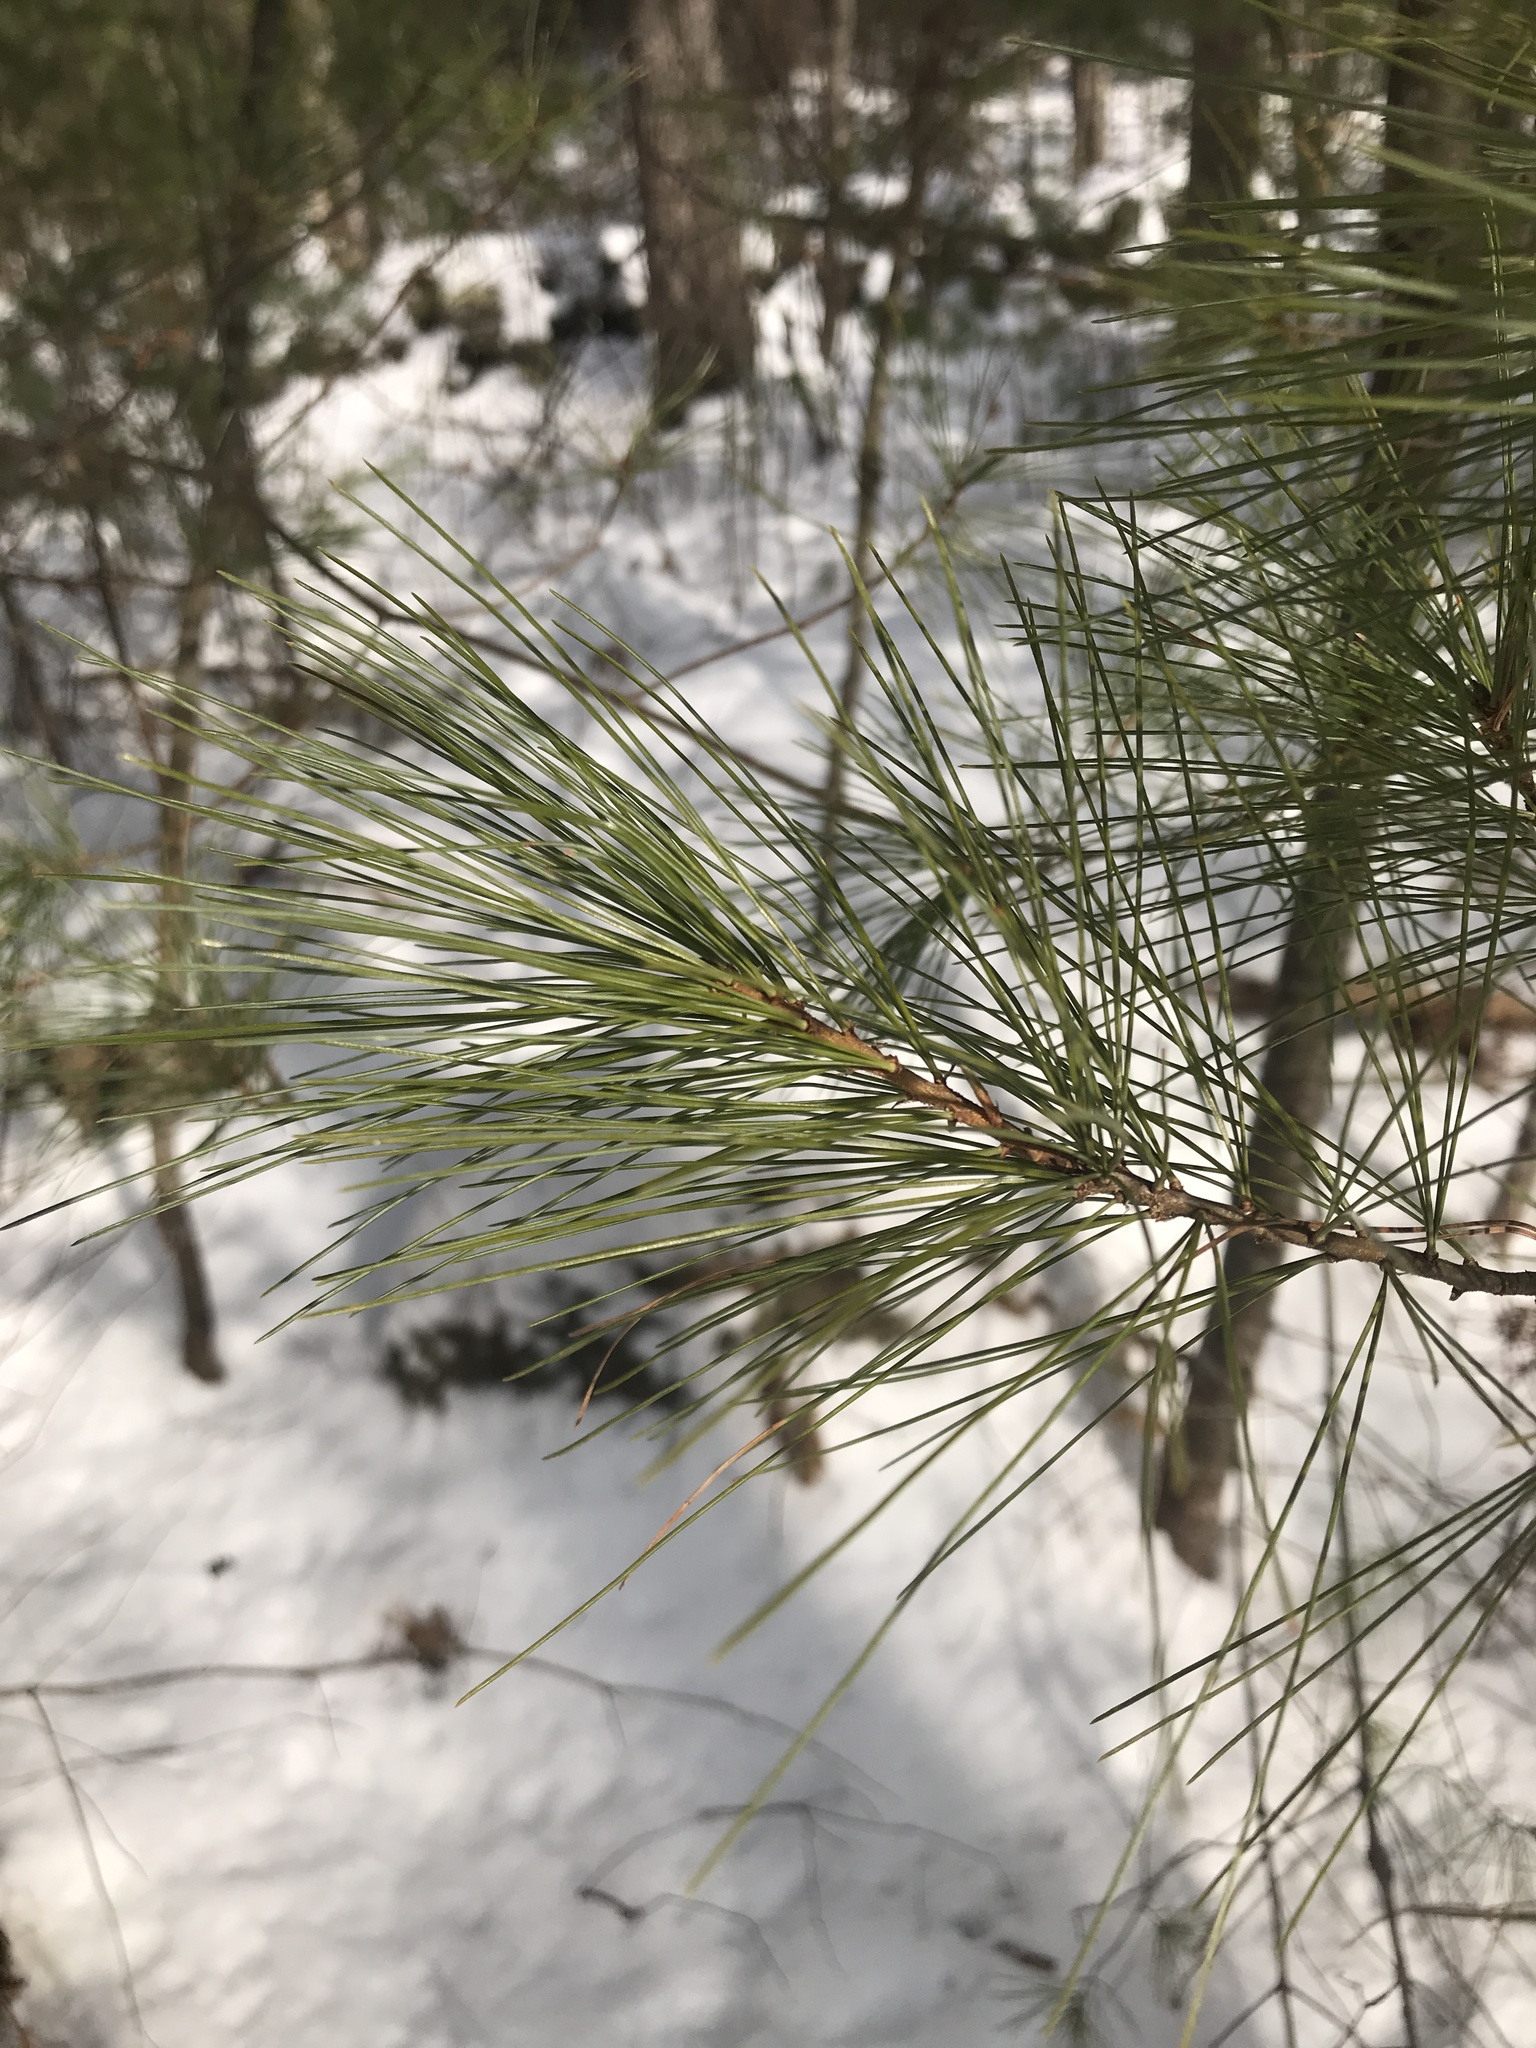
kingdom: Plantae
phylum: Tracheophyta
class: Pinopsida
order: Pinales
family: Pinaceae
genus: Pinus
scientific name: Pinus strobus
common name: Weymouth pine
